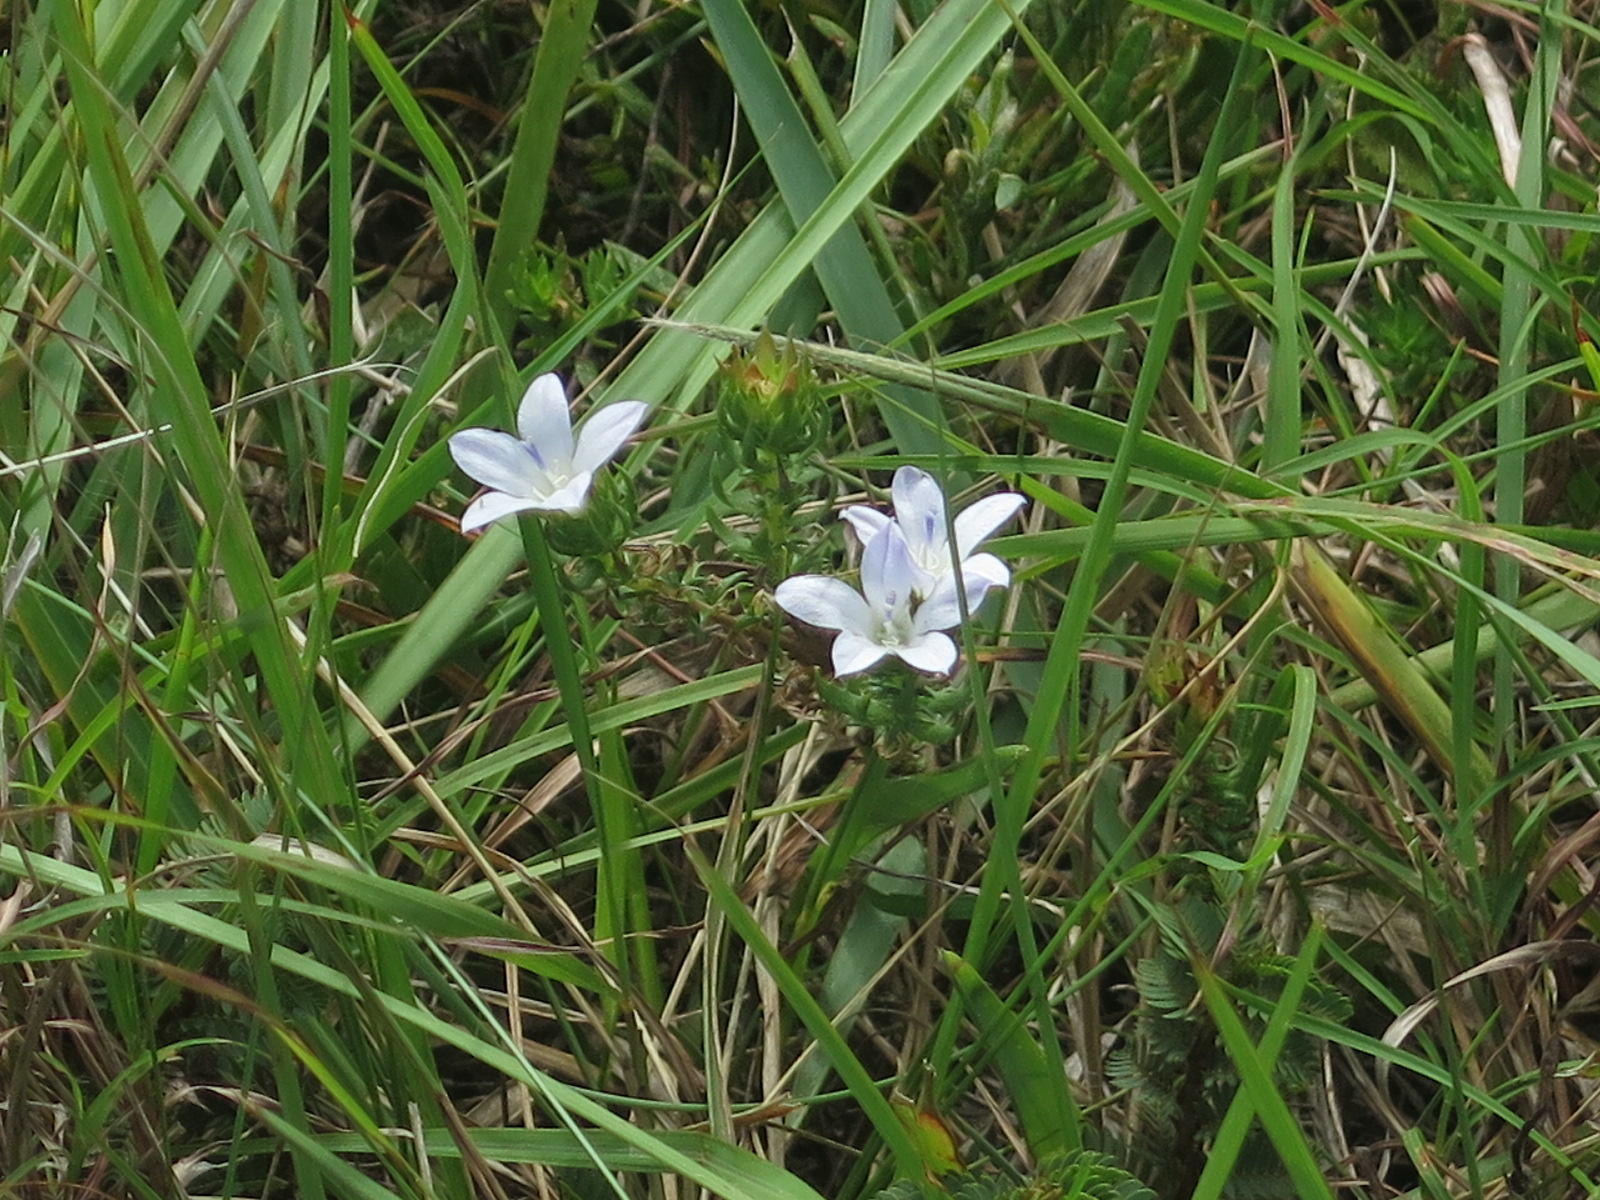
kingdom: Plantae
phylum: Tracheophyta
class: Magnoliopsida
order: Asterales
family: Campanulaceae
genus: Roella
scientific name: Roella glomerata
